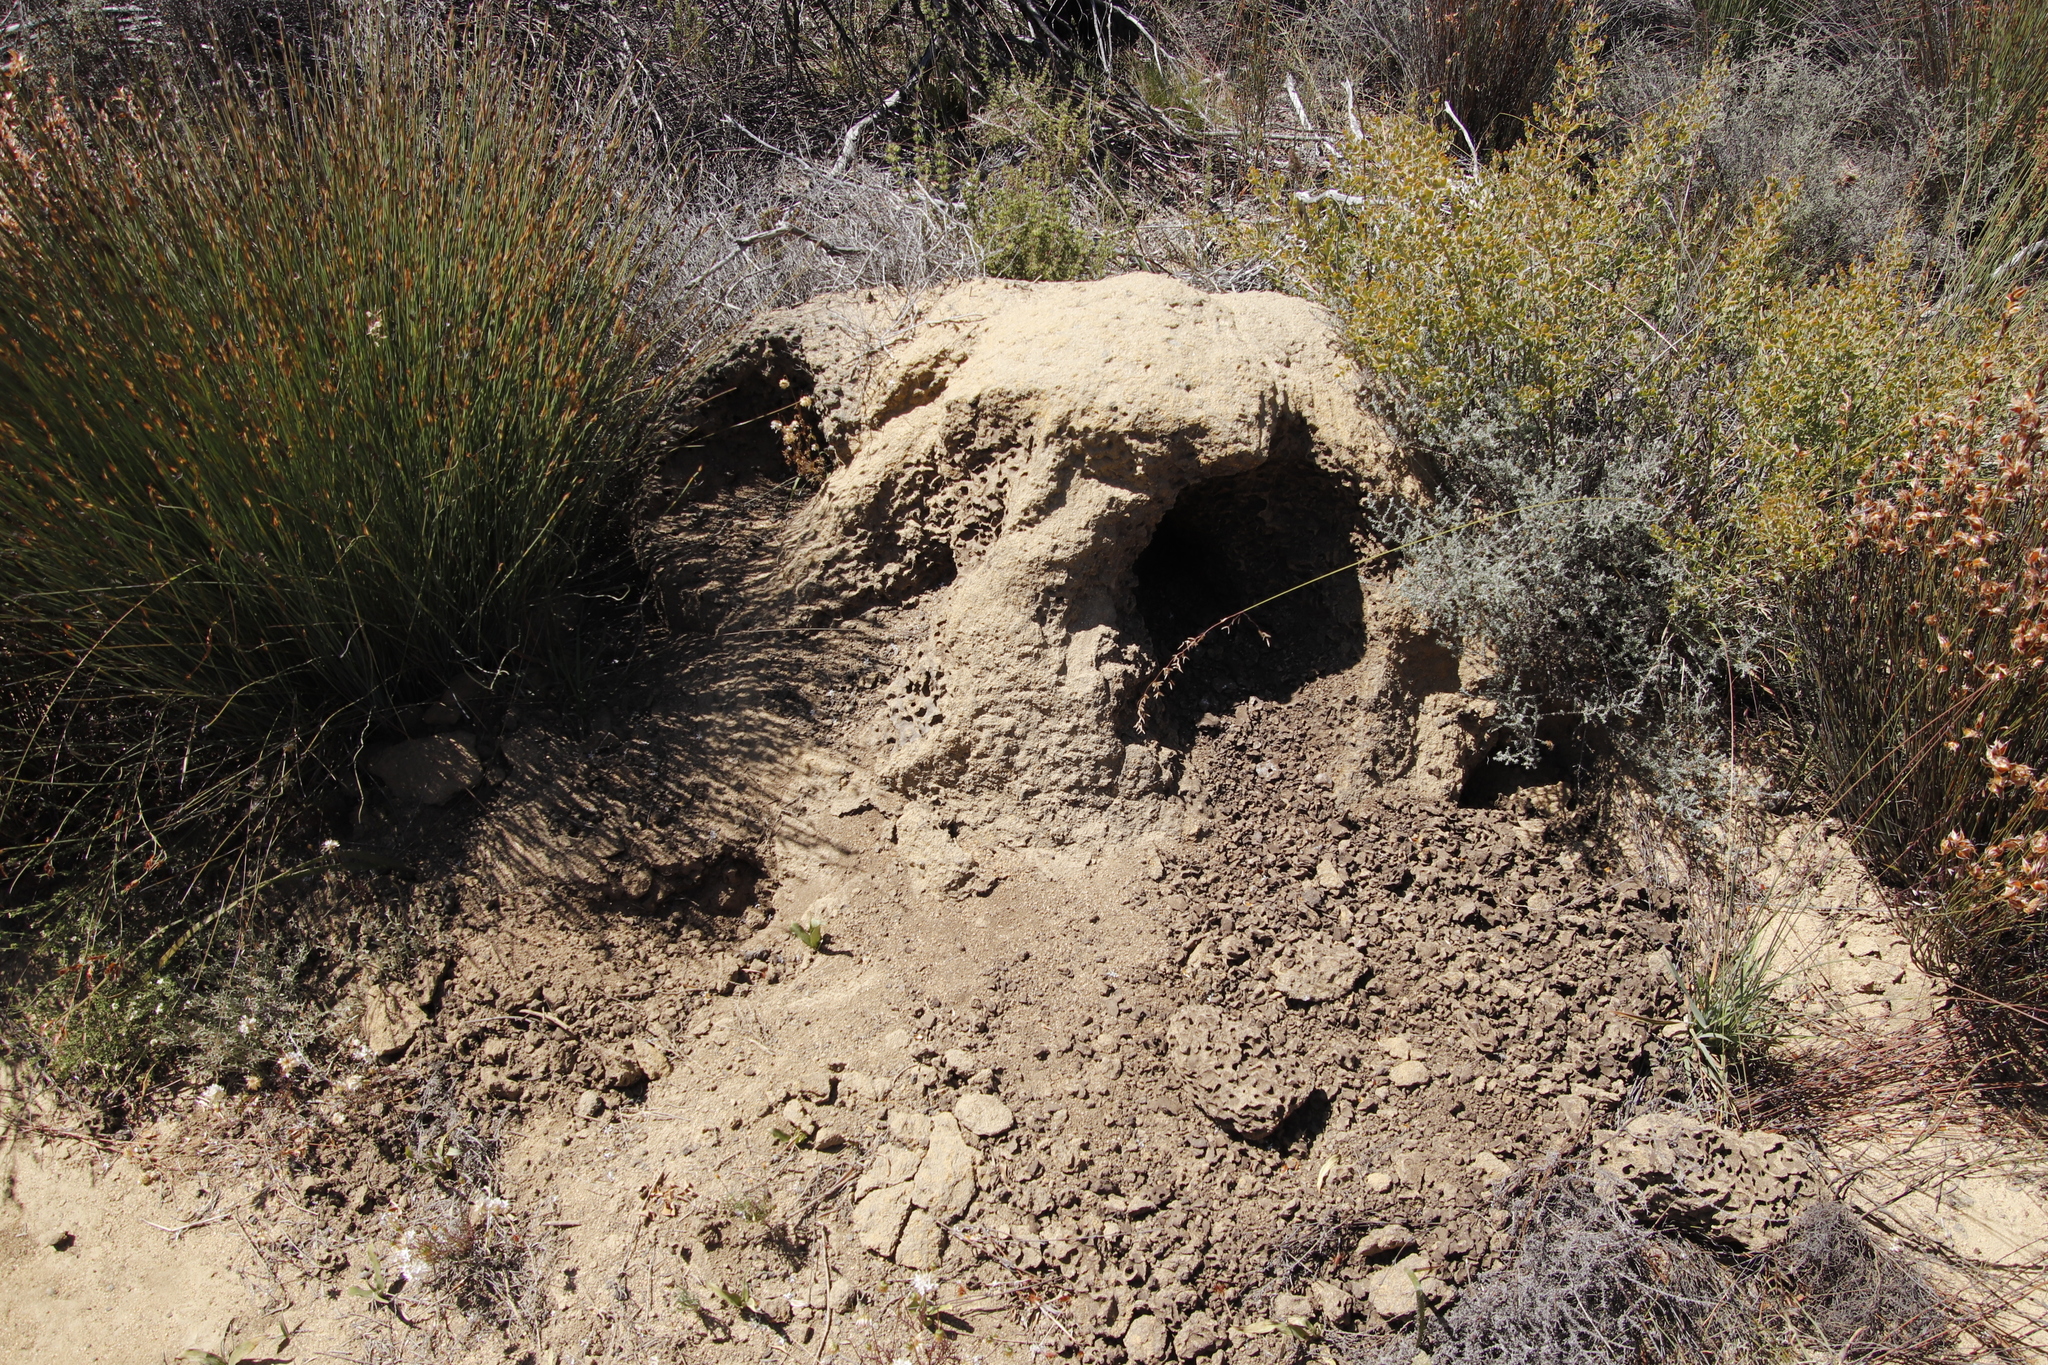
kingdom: Animalia
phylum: Chordata
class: Mammalia
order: Tubulidentata
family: Orycteropodidae
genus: Orycteropus
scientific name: Orycteropus afer
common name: Aardvark
